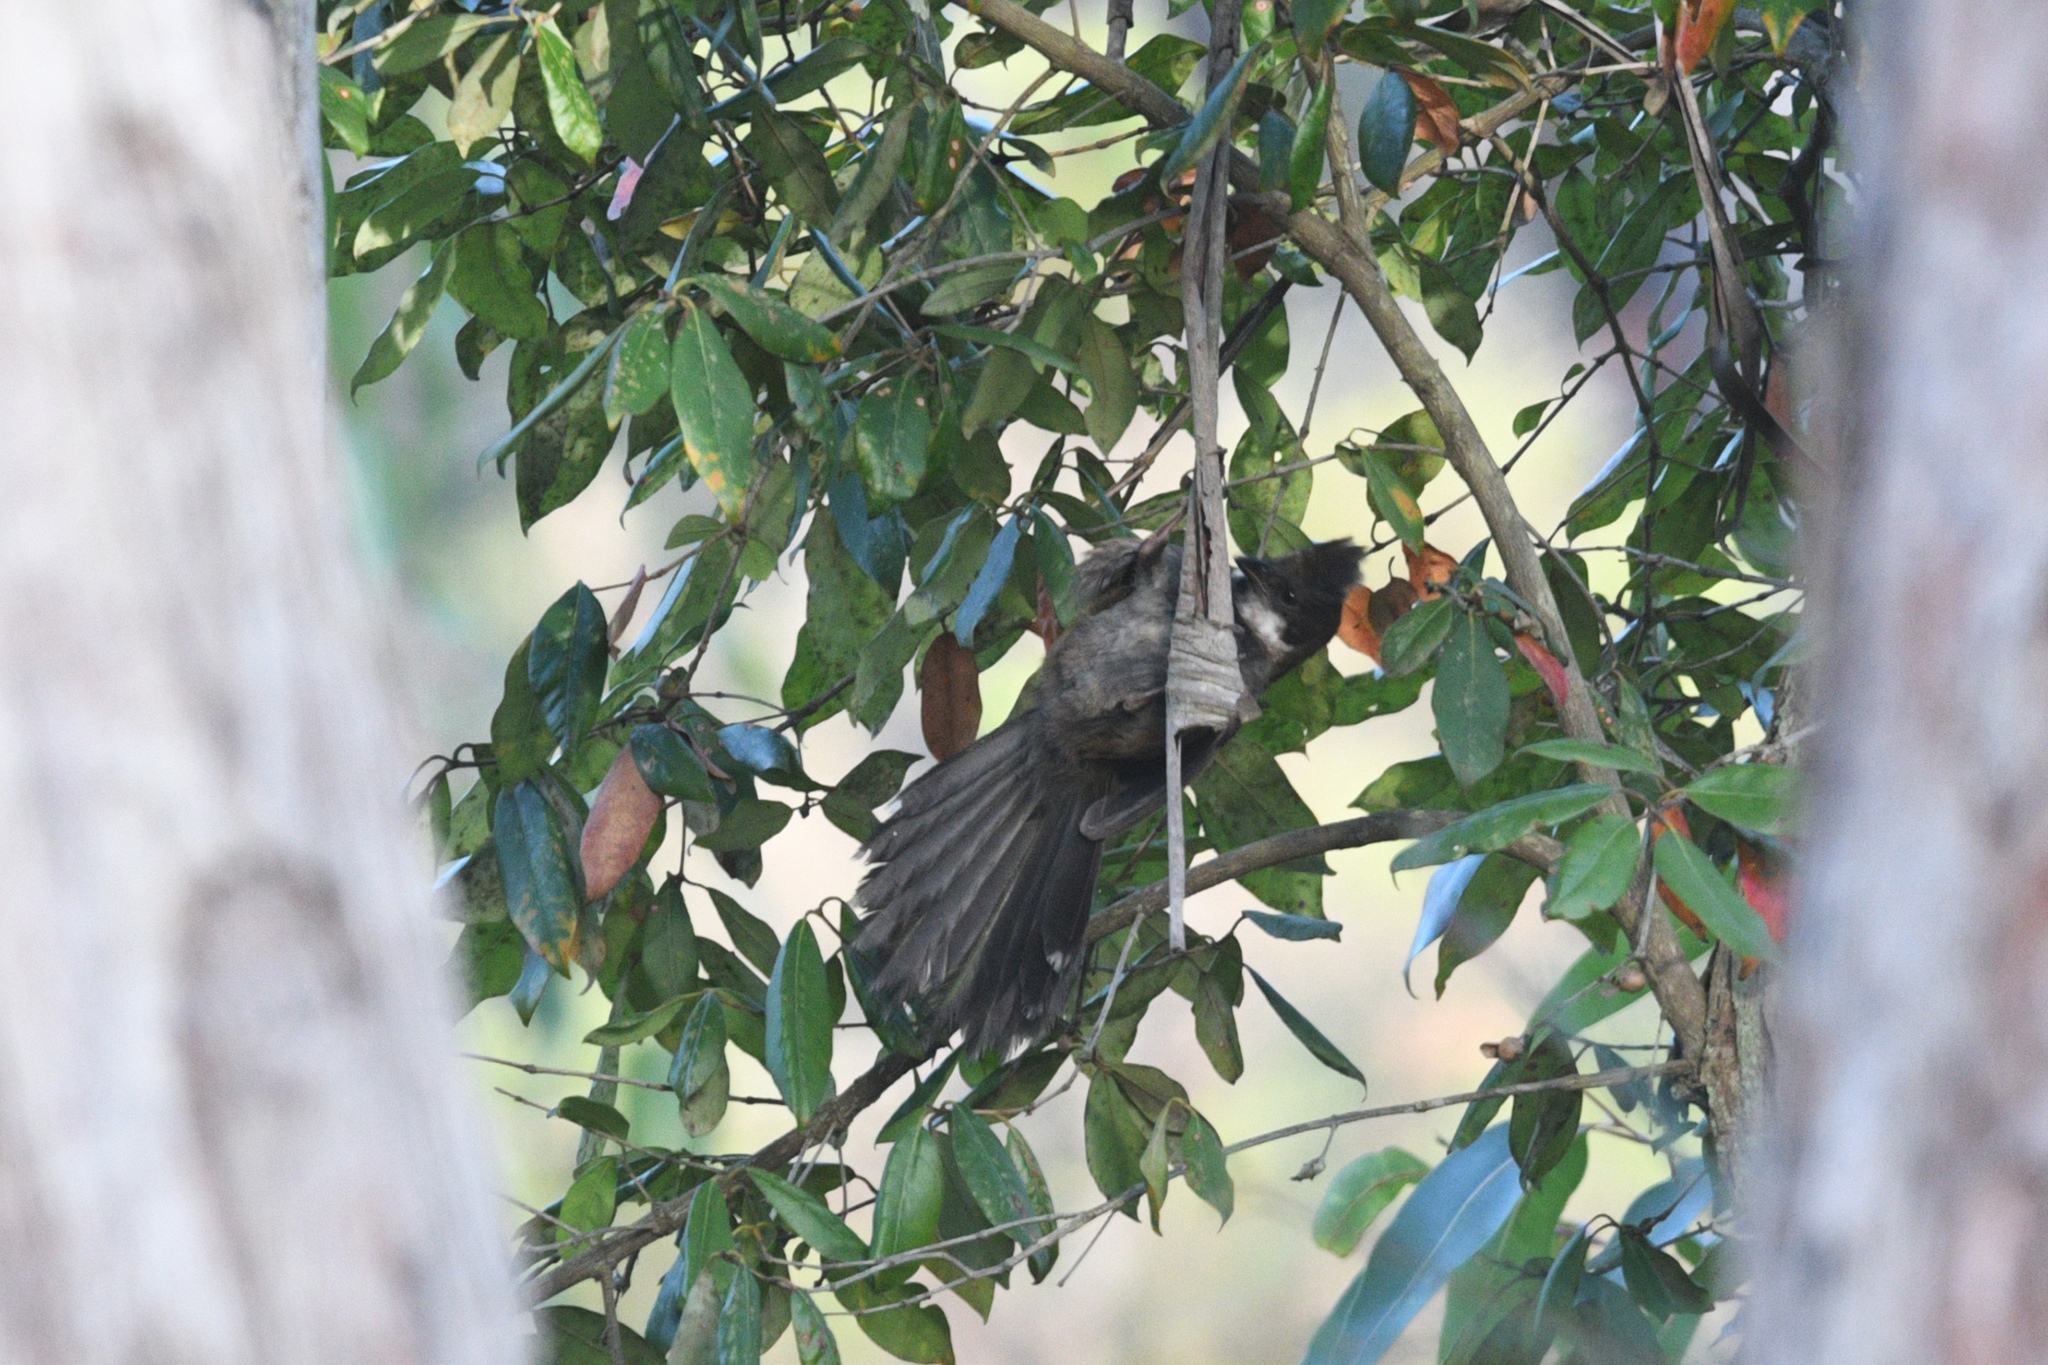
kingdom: Animalia
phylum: Chordata
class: Aves
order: Passeriformes
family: Psophodidae
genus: Psophodes
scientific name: Psophodes olivaceus
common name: Eastern whipbird
